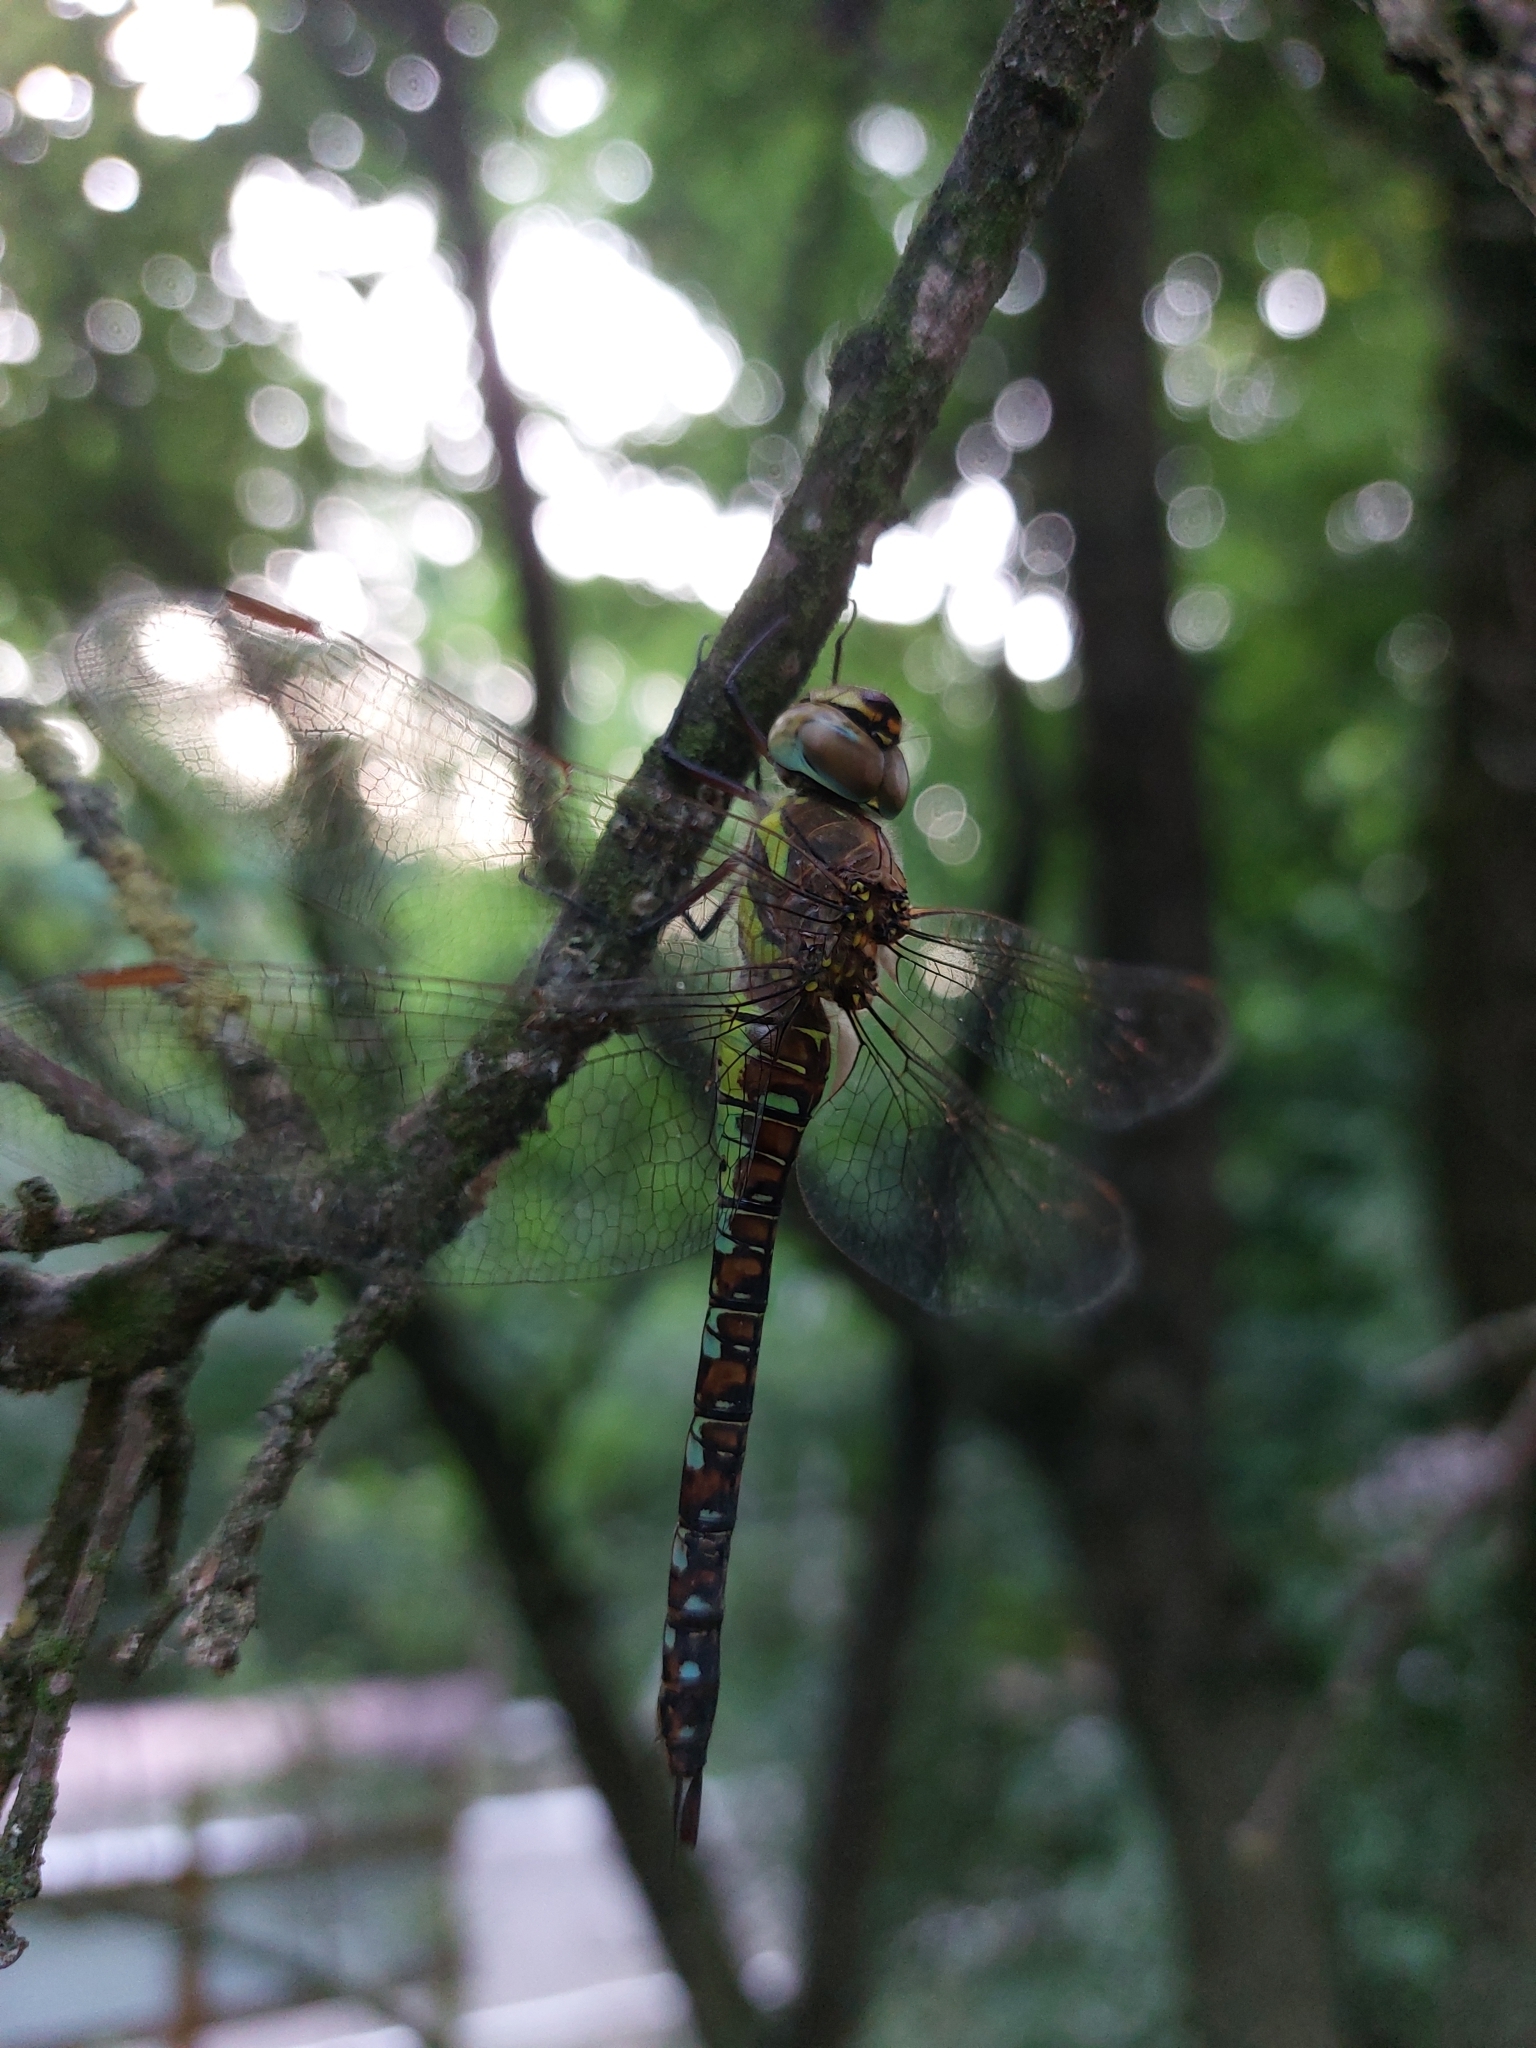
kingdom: Animalia
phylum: Arthropoda
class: Insecta
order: Odonata
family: Aeshnidae
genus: Aeshna
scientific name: Aeshna mixta
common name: Migrant hawker
